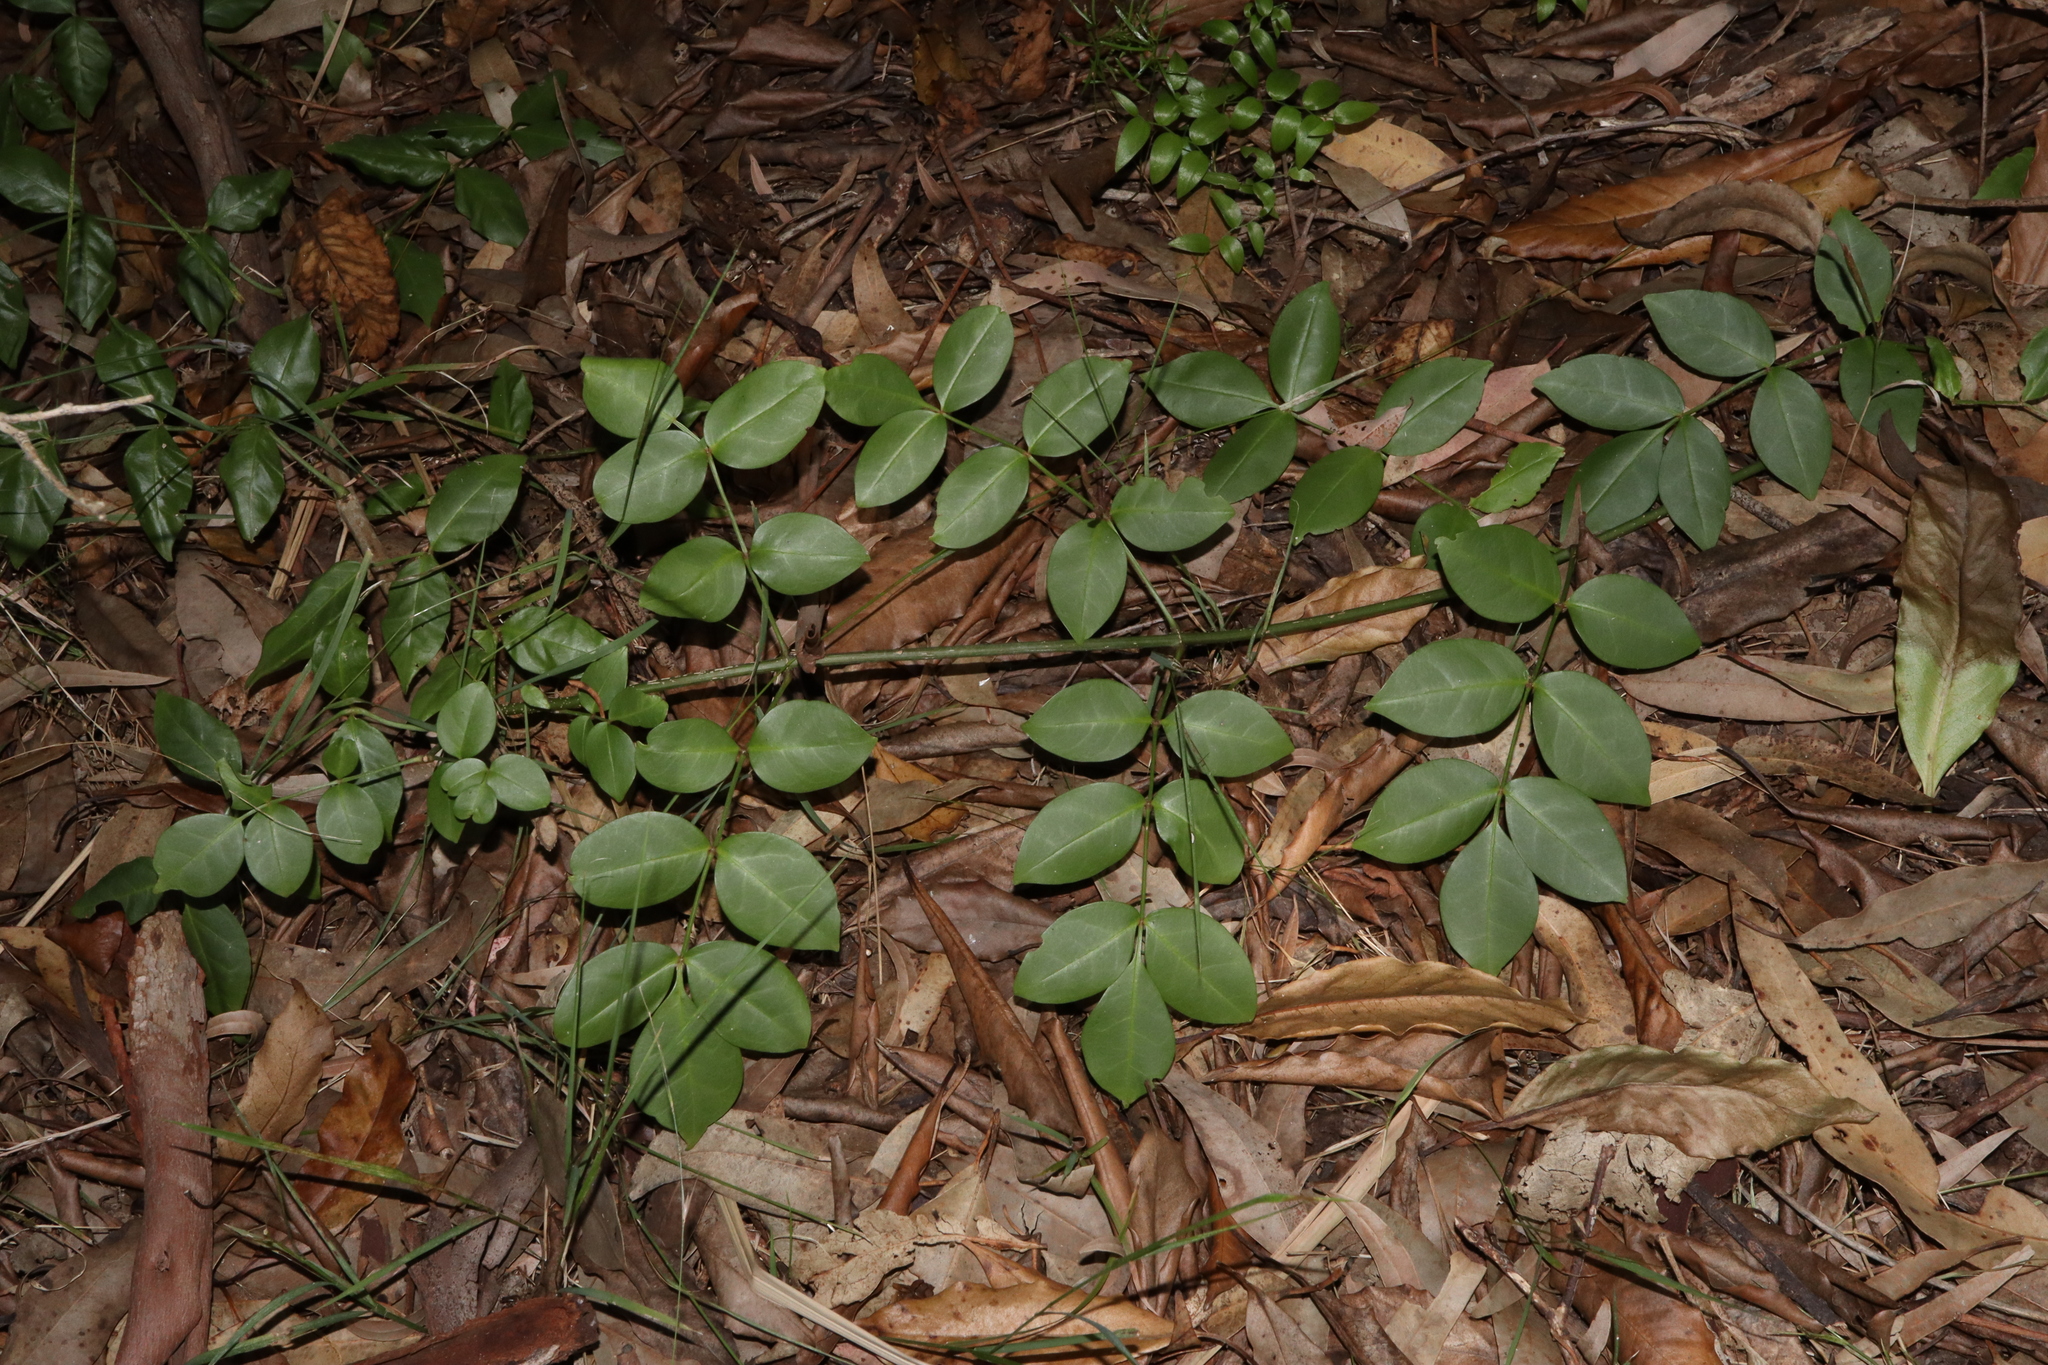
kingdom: Plantae
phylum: Tracheophyta
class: Magnoliopsida
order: Lamiales
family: Bignoniaceae
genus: Pandorea
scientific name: Pandorea jasminoides
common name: Bowerplant
